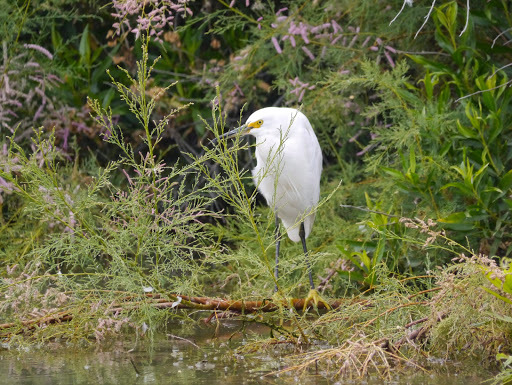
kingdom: Animalia
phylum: Chordata
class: Aves
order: Pelecaniformes
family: Ardeidae
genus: Egretta
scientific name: Egretta thula
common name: Snowy egret
